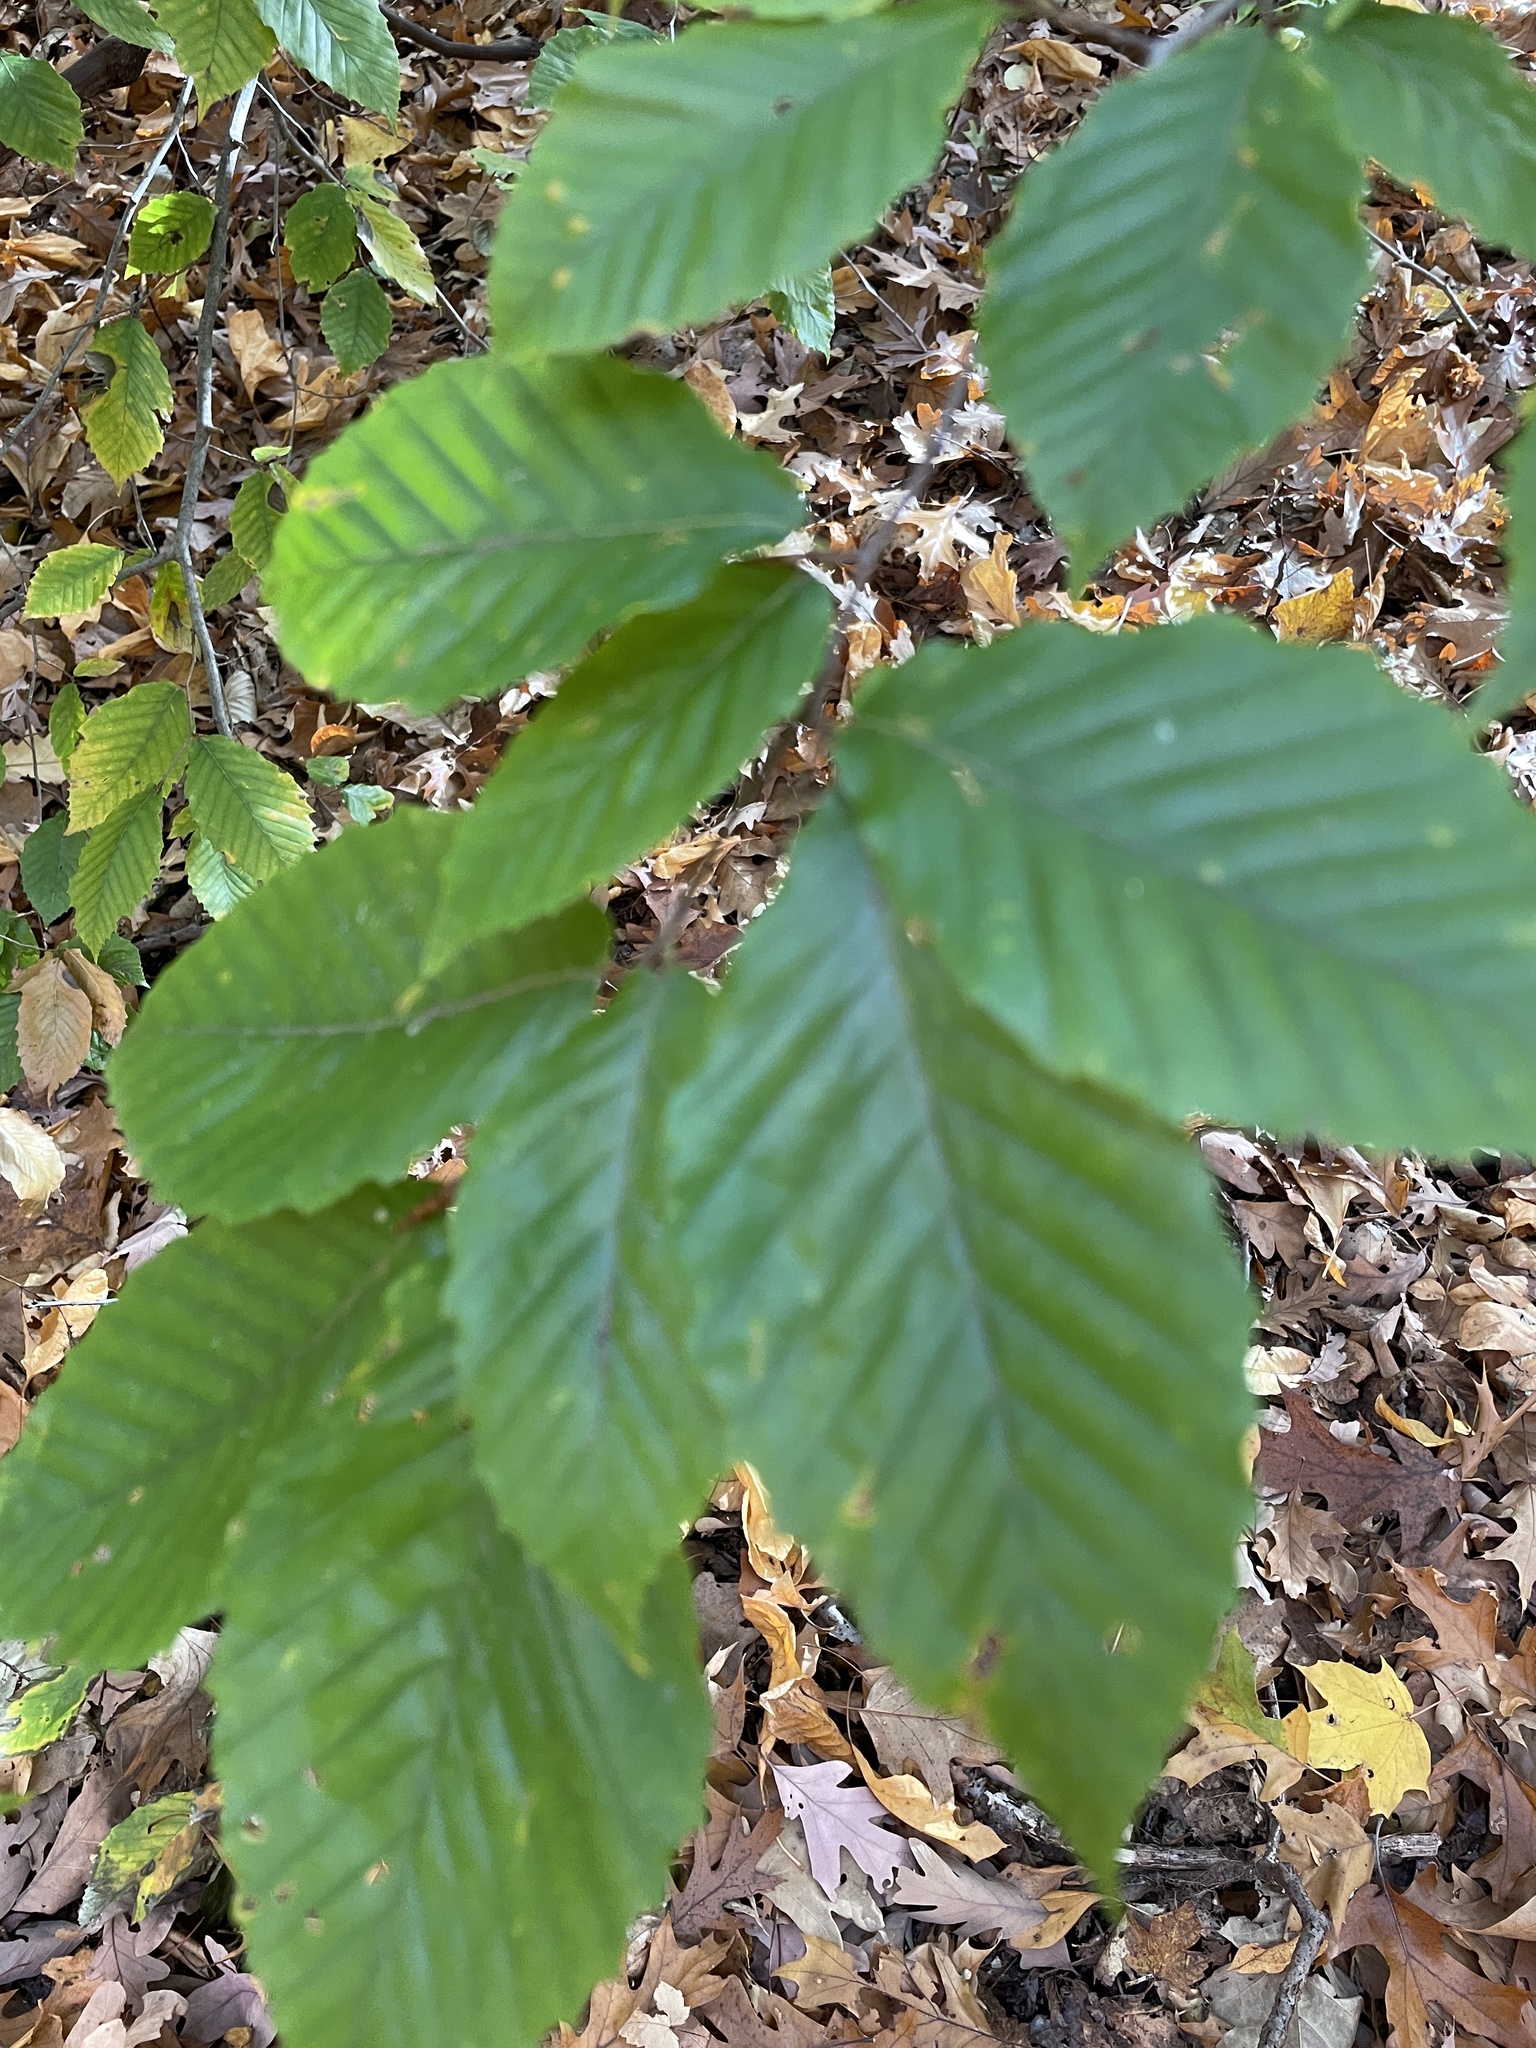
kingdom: Plantae
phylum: Tracheophyta
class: Magnoliopsida
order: Fagales
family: Fagaceae
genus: Fagus
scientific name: Fagus grandifolia
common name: American beech
